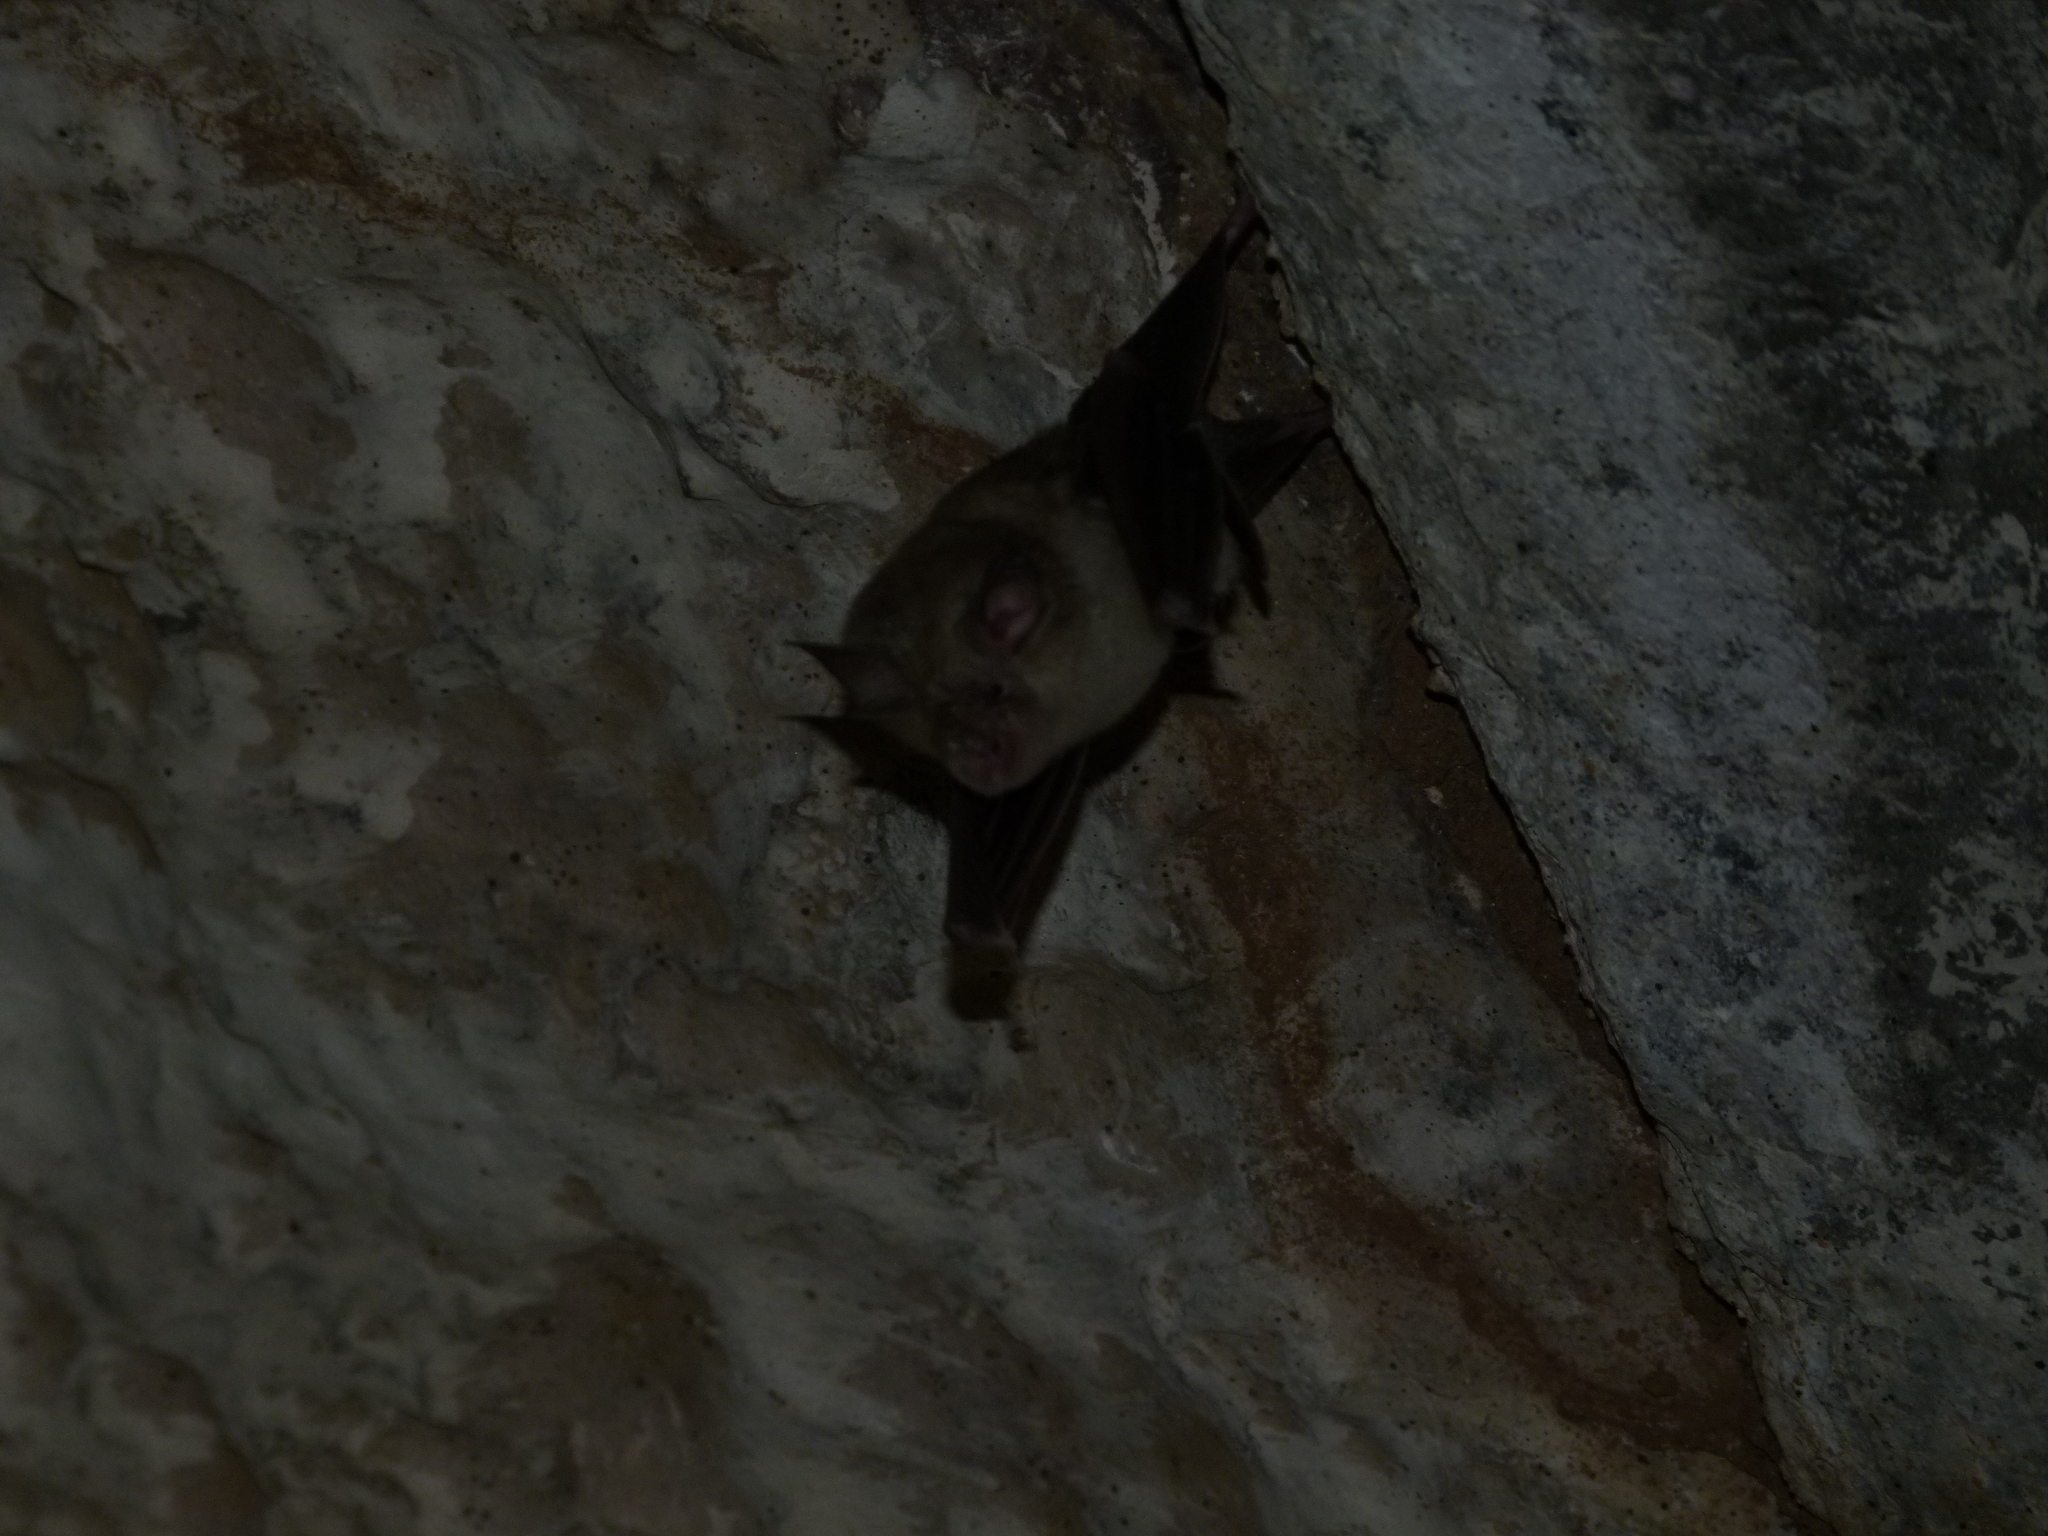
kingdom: Animalia
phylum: Chordata
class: Mammalia
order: Chiroptera
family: Rhinolophidae
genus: Rhinolophus
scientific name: Rhinolophus lepidus
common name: Blyth's horseshoe bat
